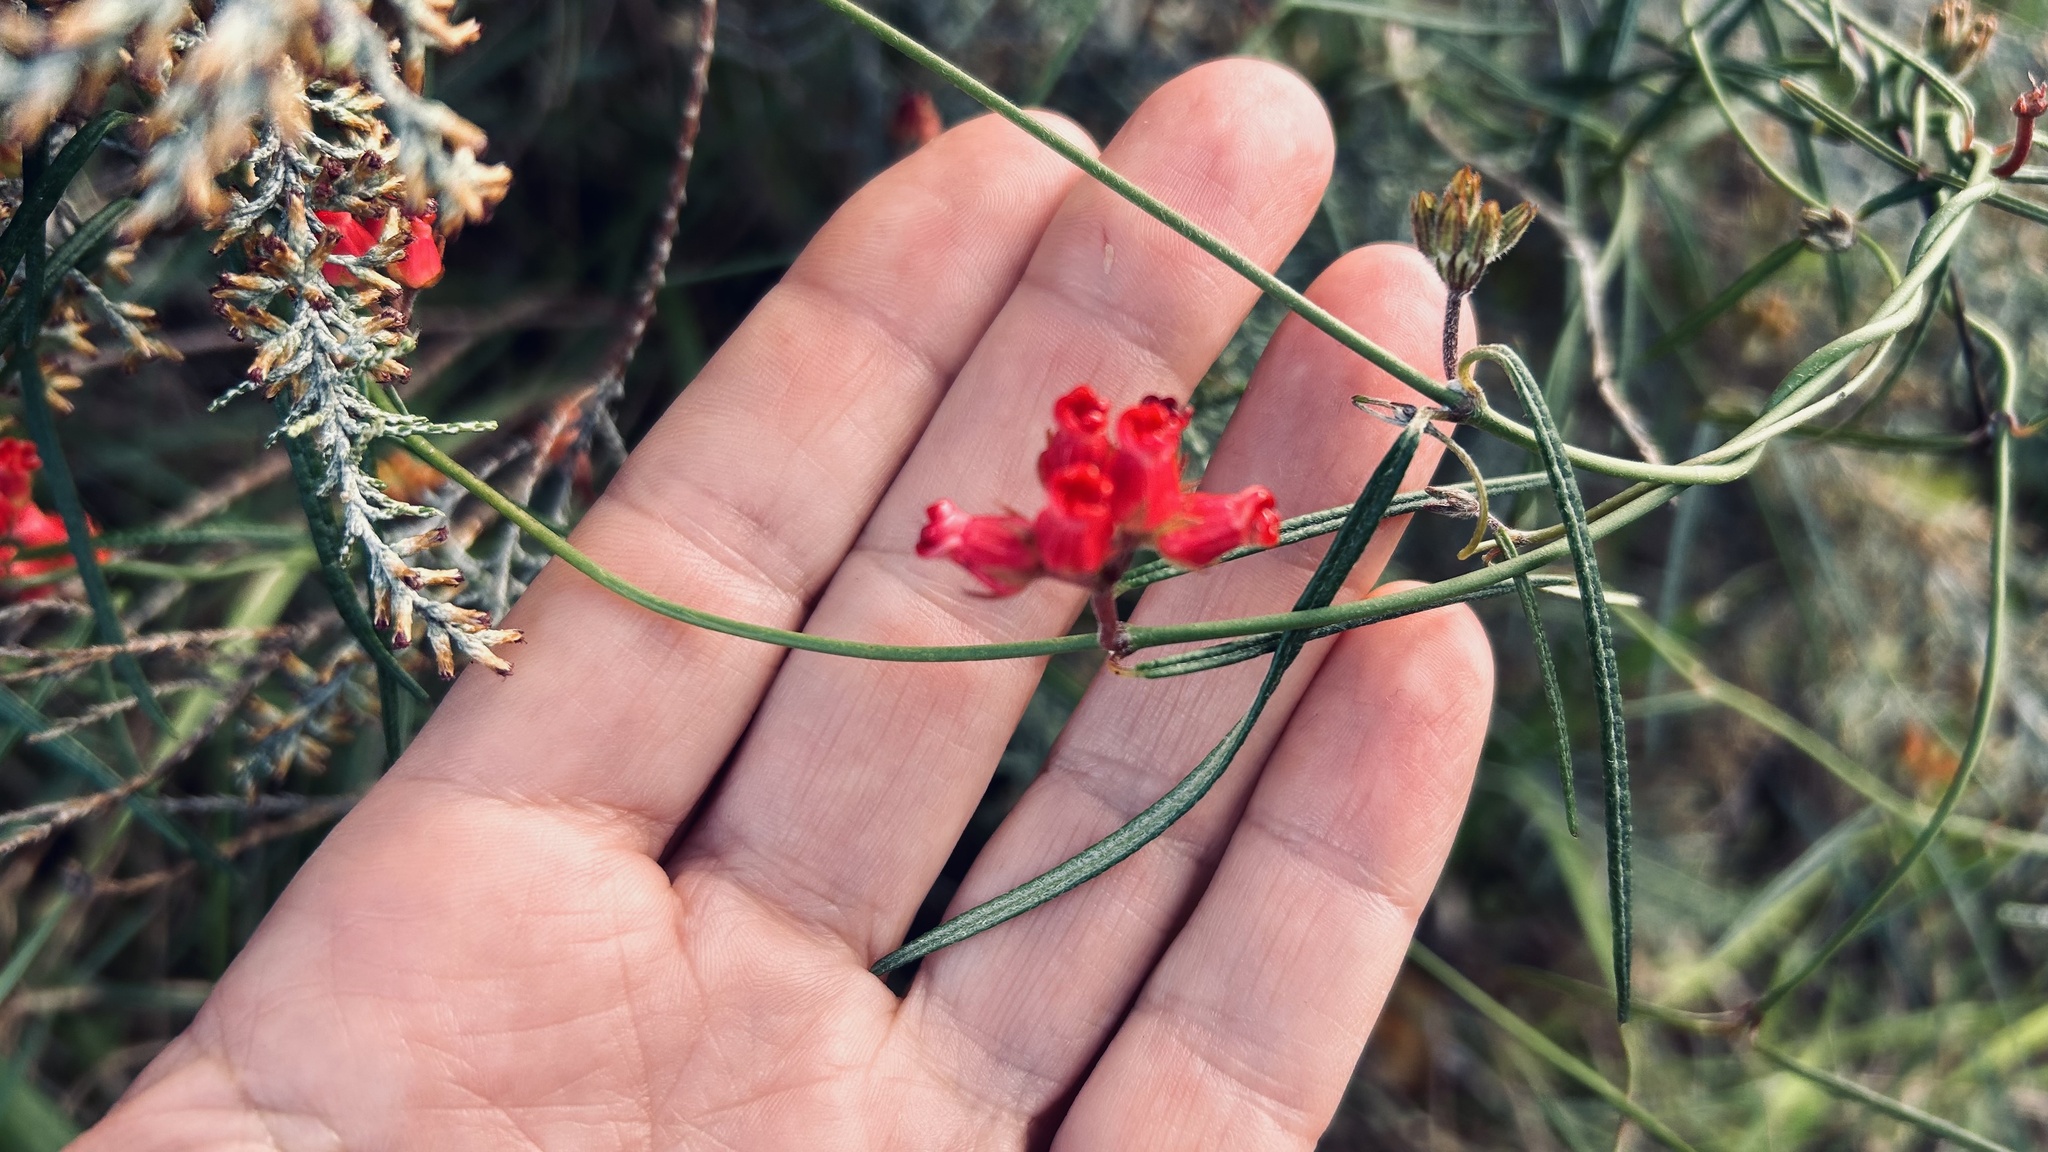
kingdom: Plantae
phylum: Tracheophyta
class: Magnoliopsida
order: Gentianales
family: Apocynaceae
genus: Microloma
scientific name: Microloma tenuifolium
